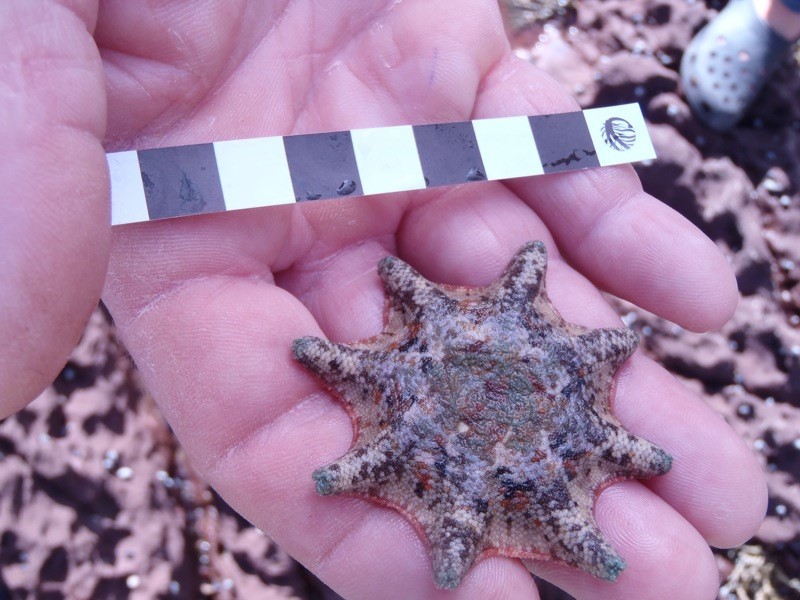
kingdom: Animalia
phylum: Echinodermata
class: Asteroidea
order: Valvatida
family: Asterinidae
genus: Meridiastra
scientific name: Meridiastra calcar
